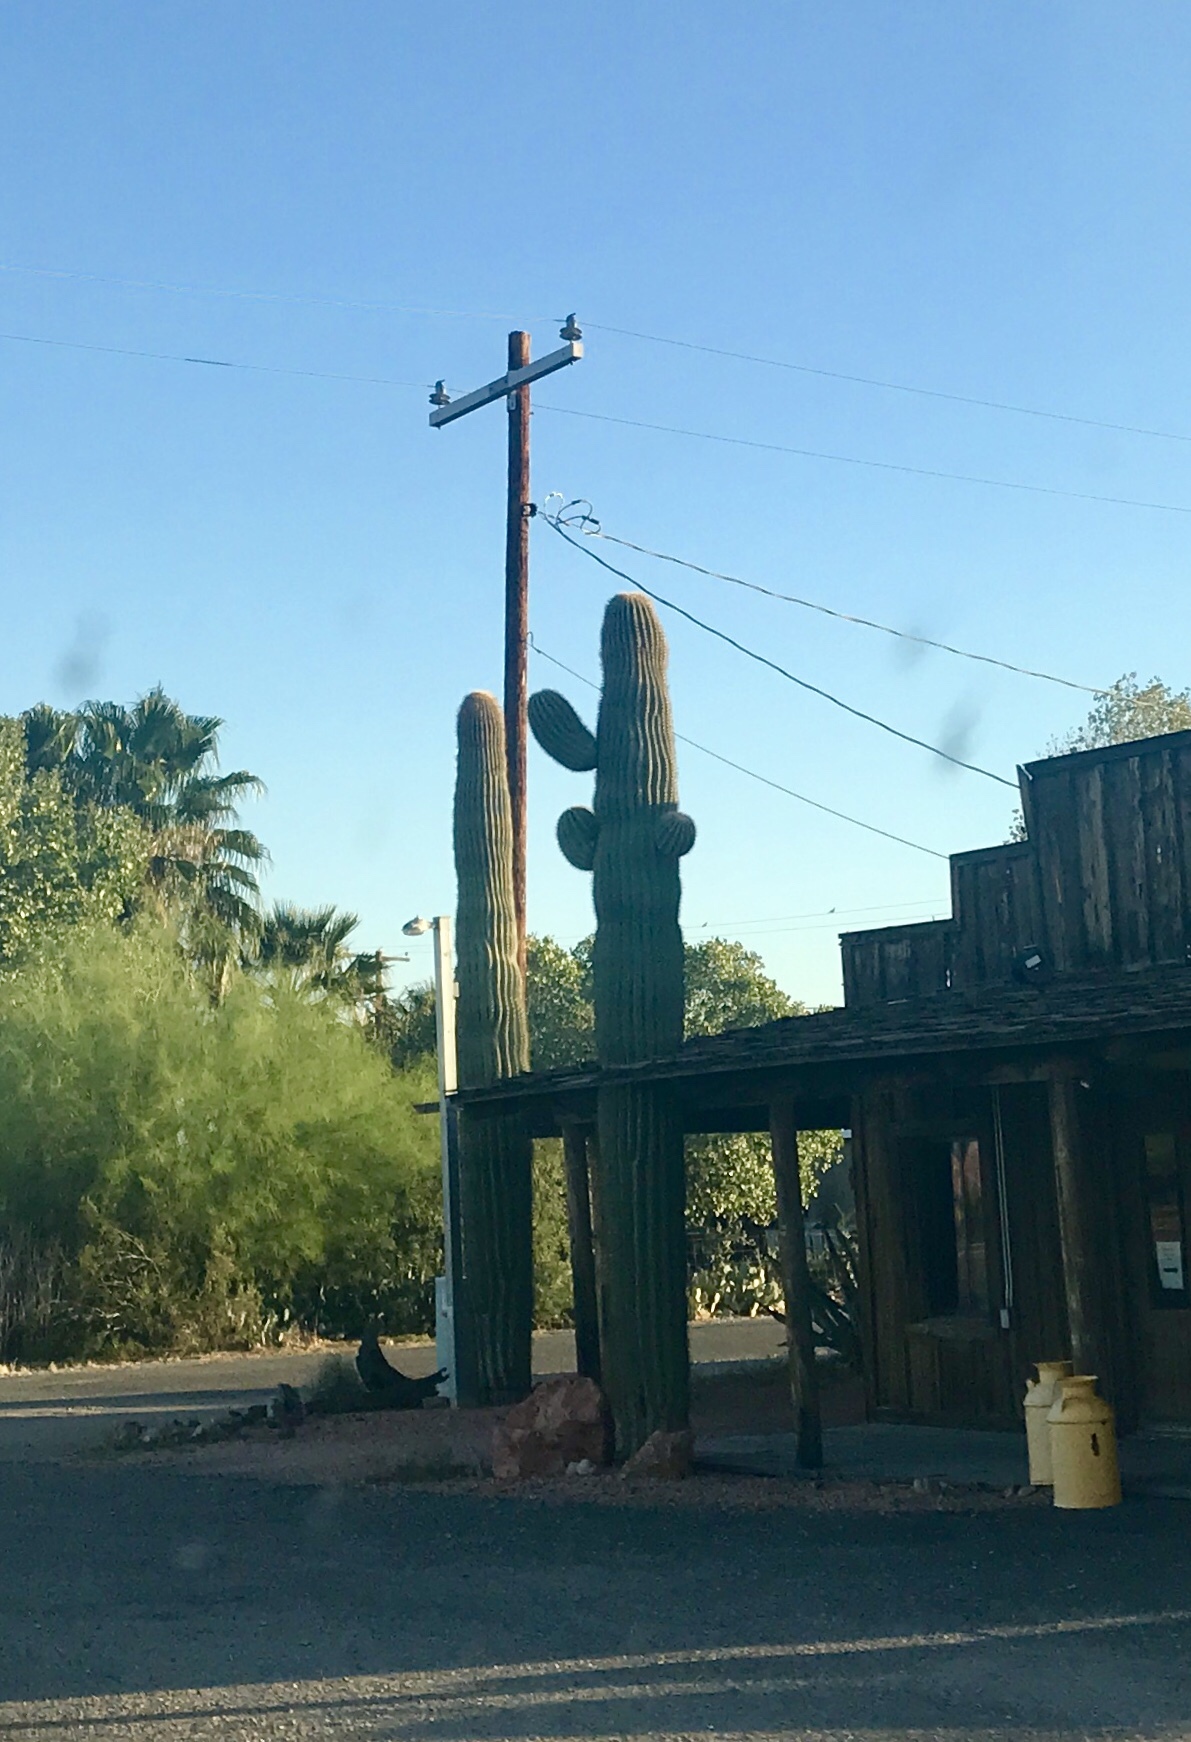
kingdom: Plantae
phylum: Tracheophyta
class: Magnoliopsida
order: Caryophyllales
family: Cactaceae
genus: Carnegiea
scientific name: Carnegiea gigantea
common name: Saguaro
